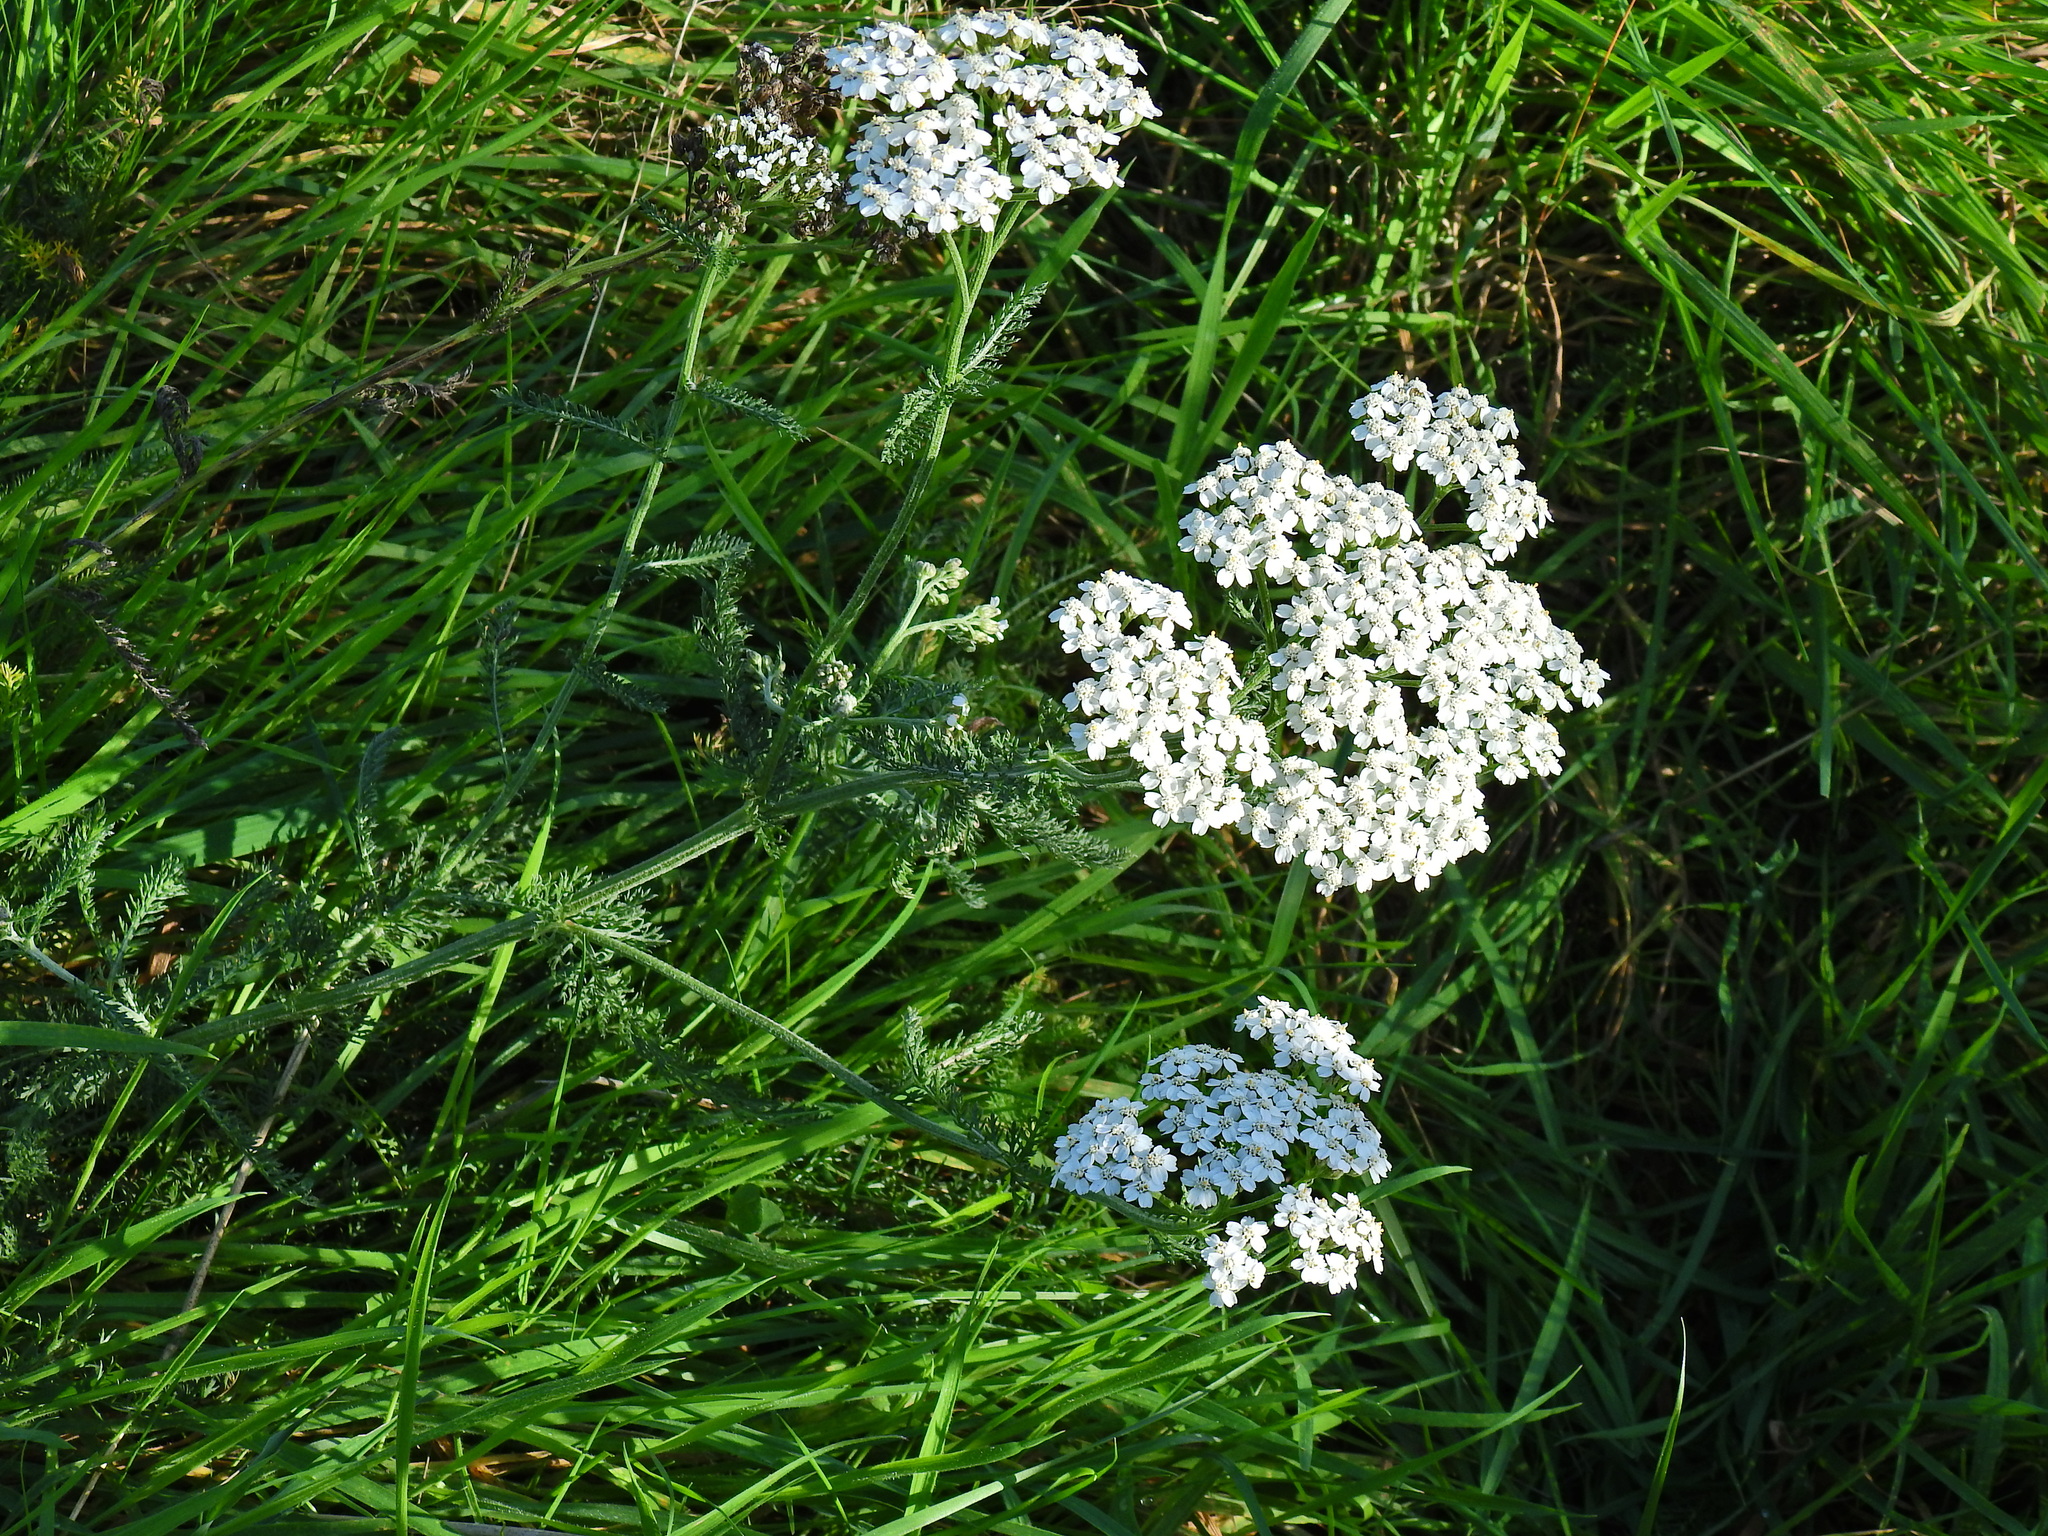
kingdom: Plantae
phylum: Tracheophyta
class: Magnoliopsida
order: Asterales
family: Asteraceae
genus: Achillea
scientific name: Achillea millefolium
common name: Yarrow
